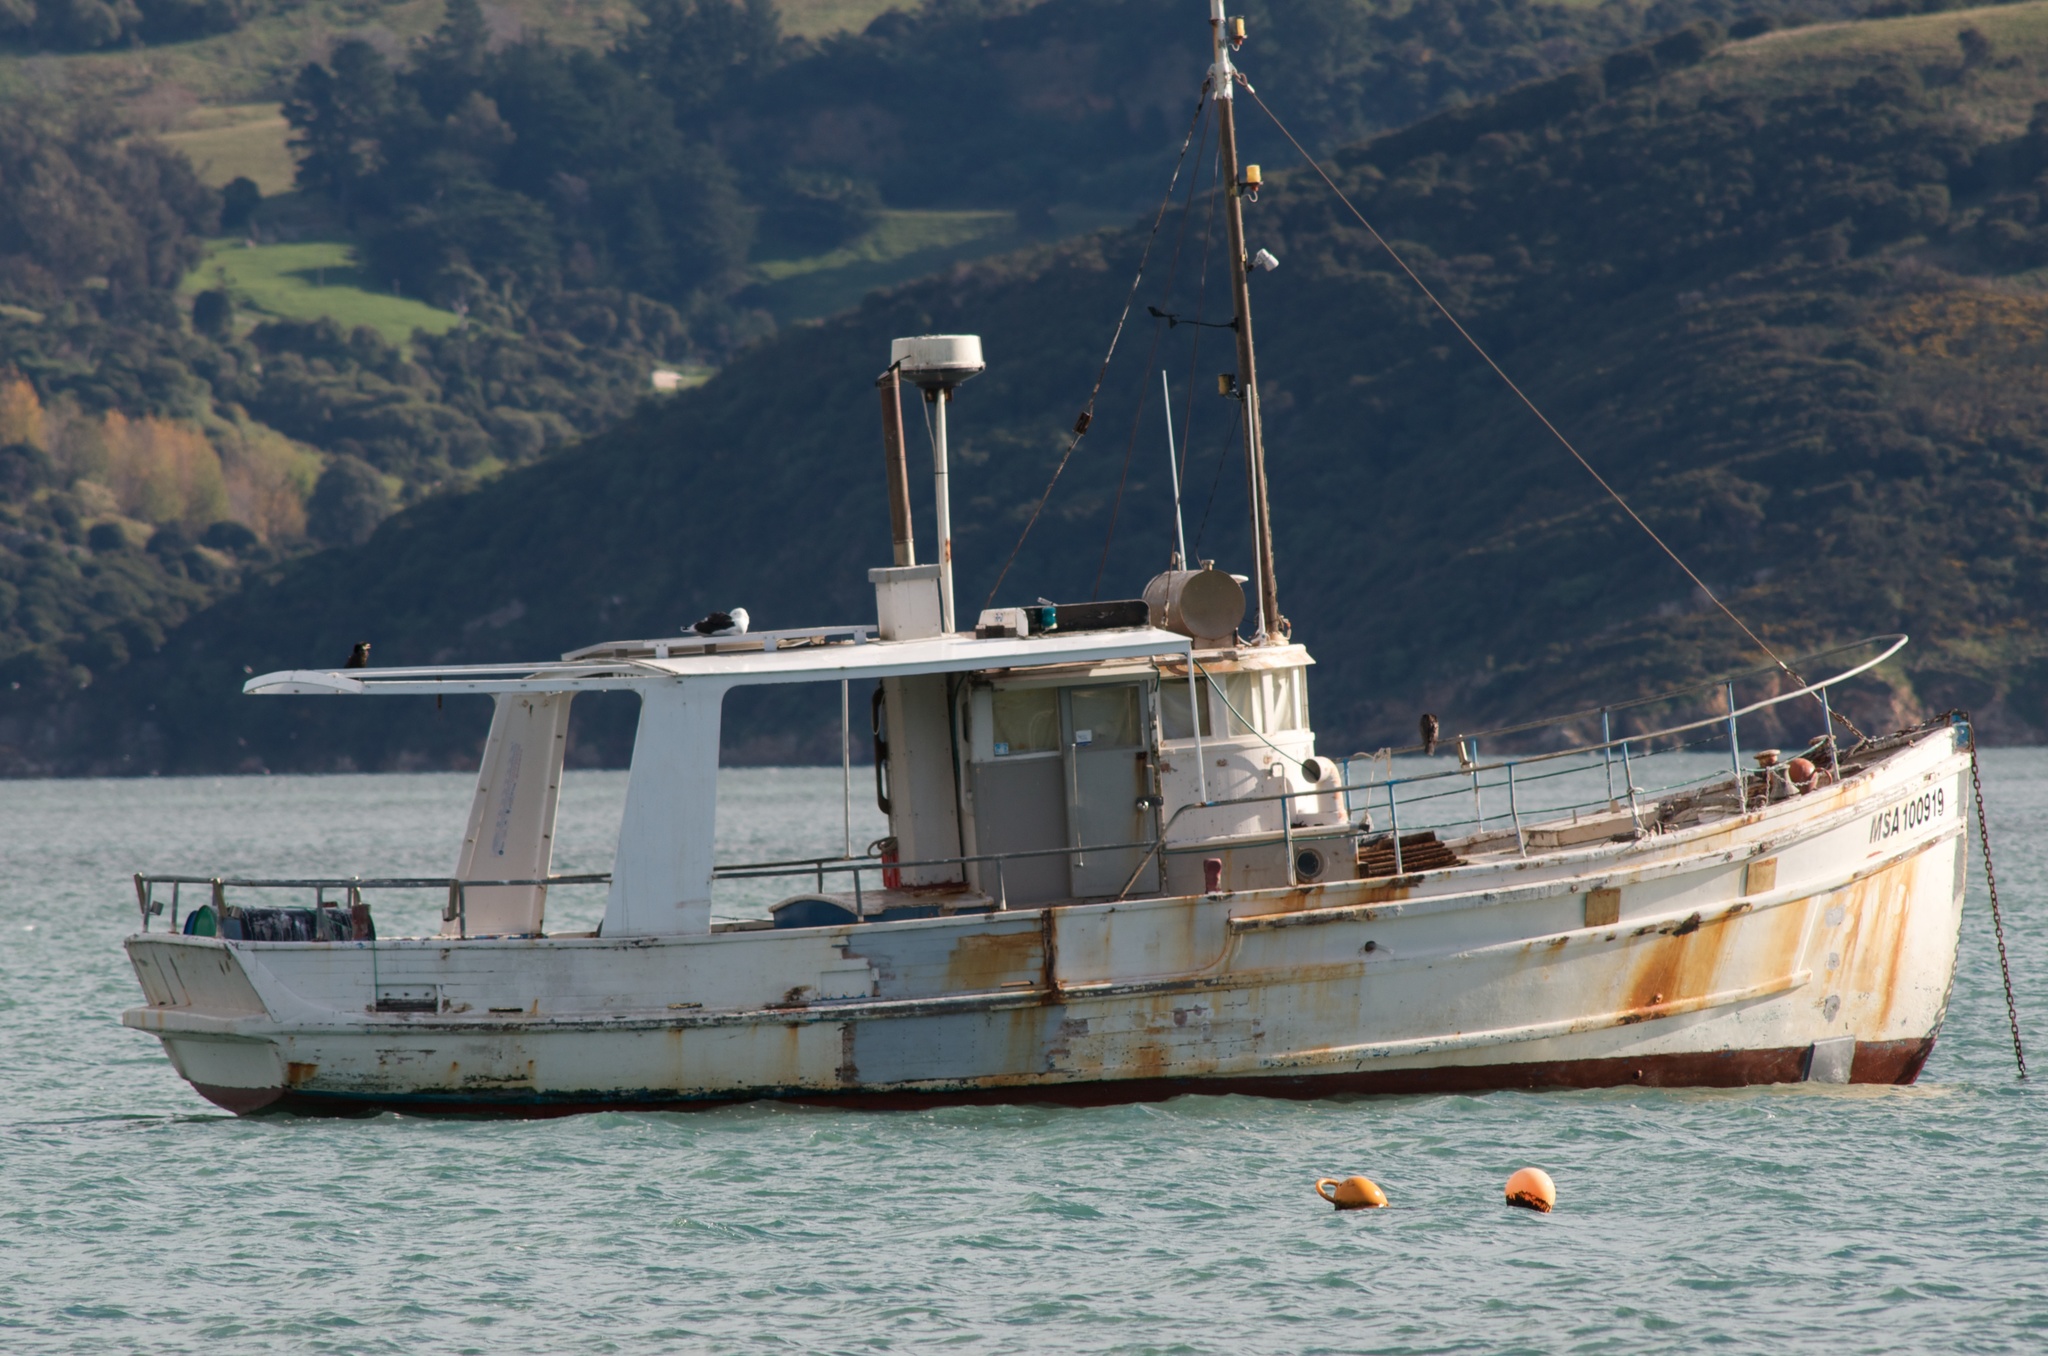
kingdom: Animalia
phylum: Chordata
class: Aves
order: Suliformes
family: Phalacrocoracidae
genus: Microcarbo
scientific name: Microcarbo melanoleucos
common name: Little pied cormorant
